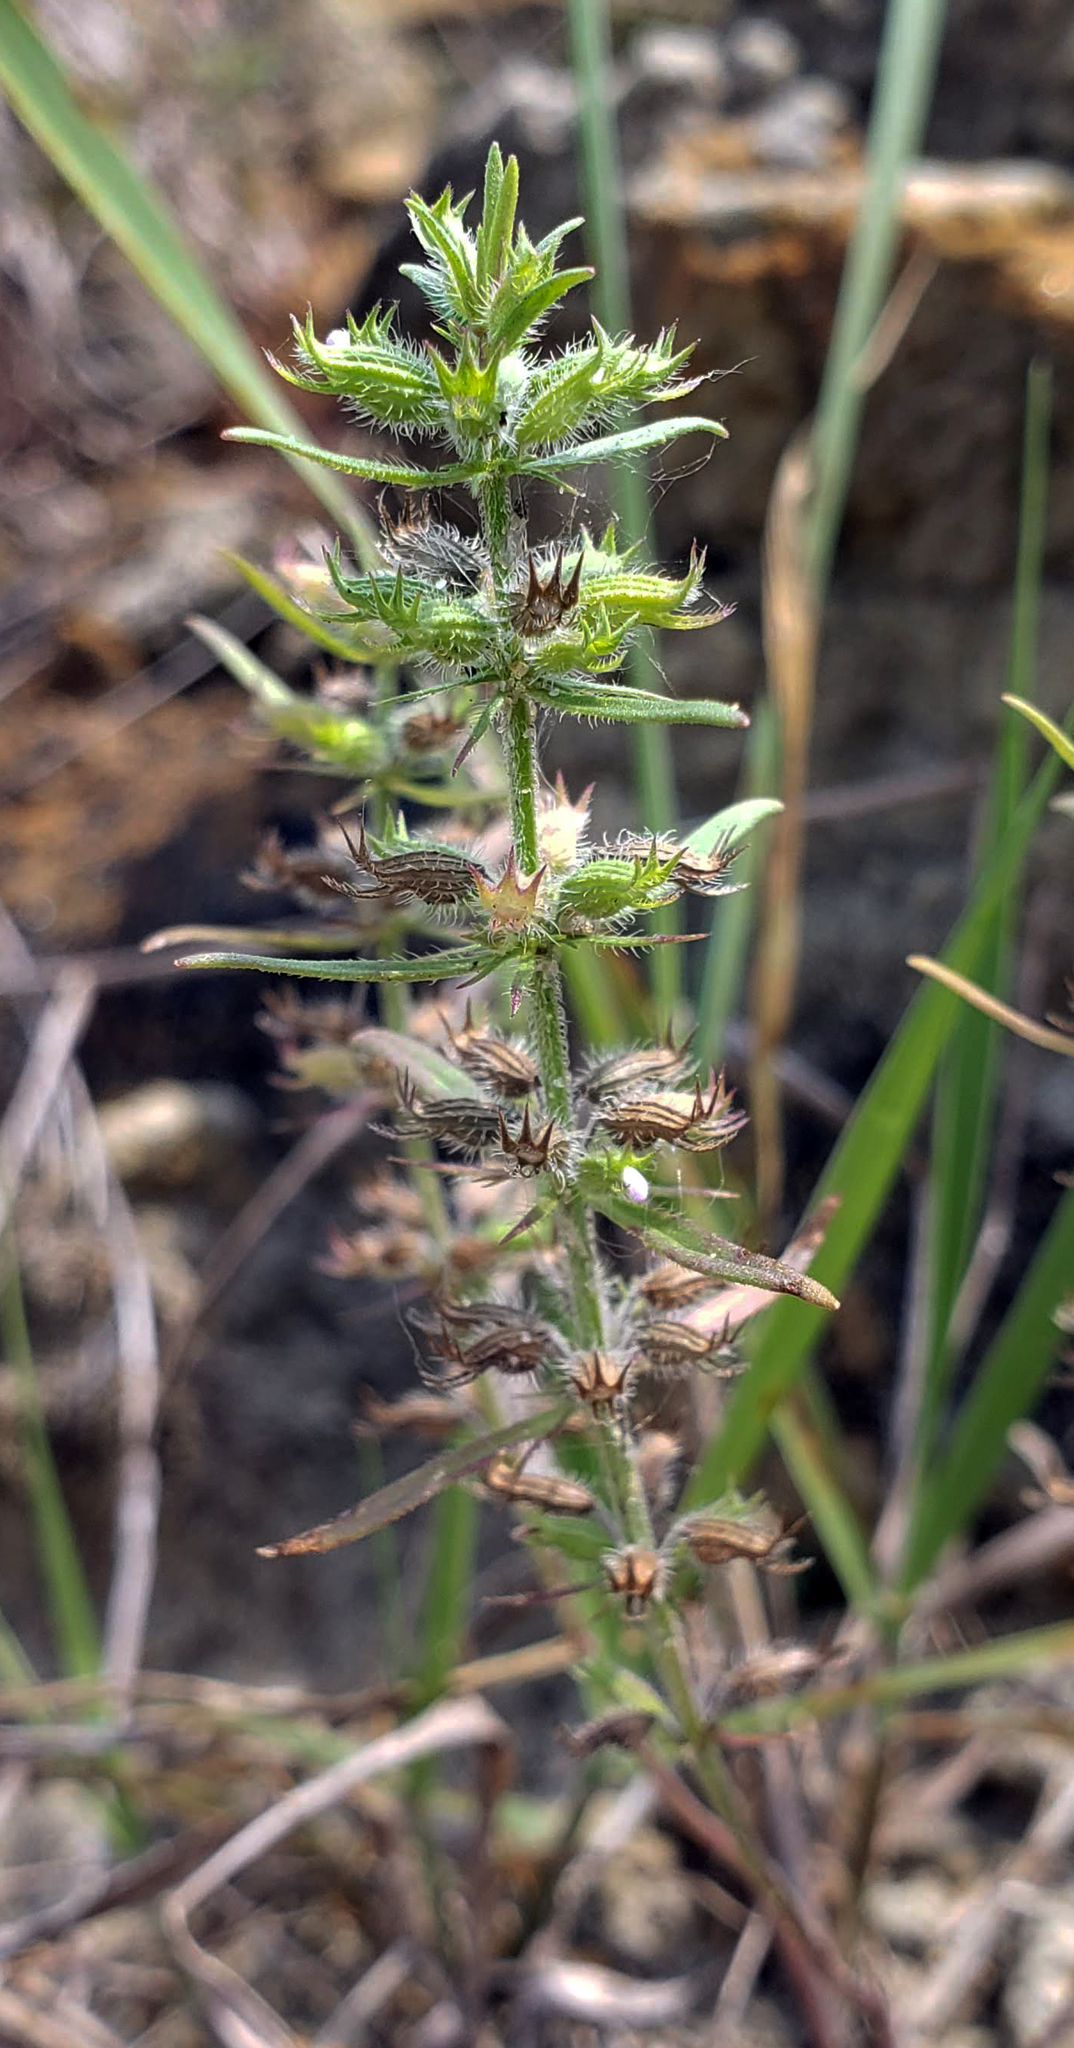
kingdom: Plantae
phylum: Tracheophyta
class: Magnoliopsida
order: Lamiales
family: Lamiaceae
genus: Hedeoma
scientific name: Hedeoma hispida
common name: Mock pennyroyal
